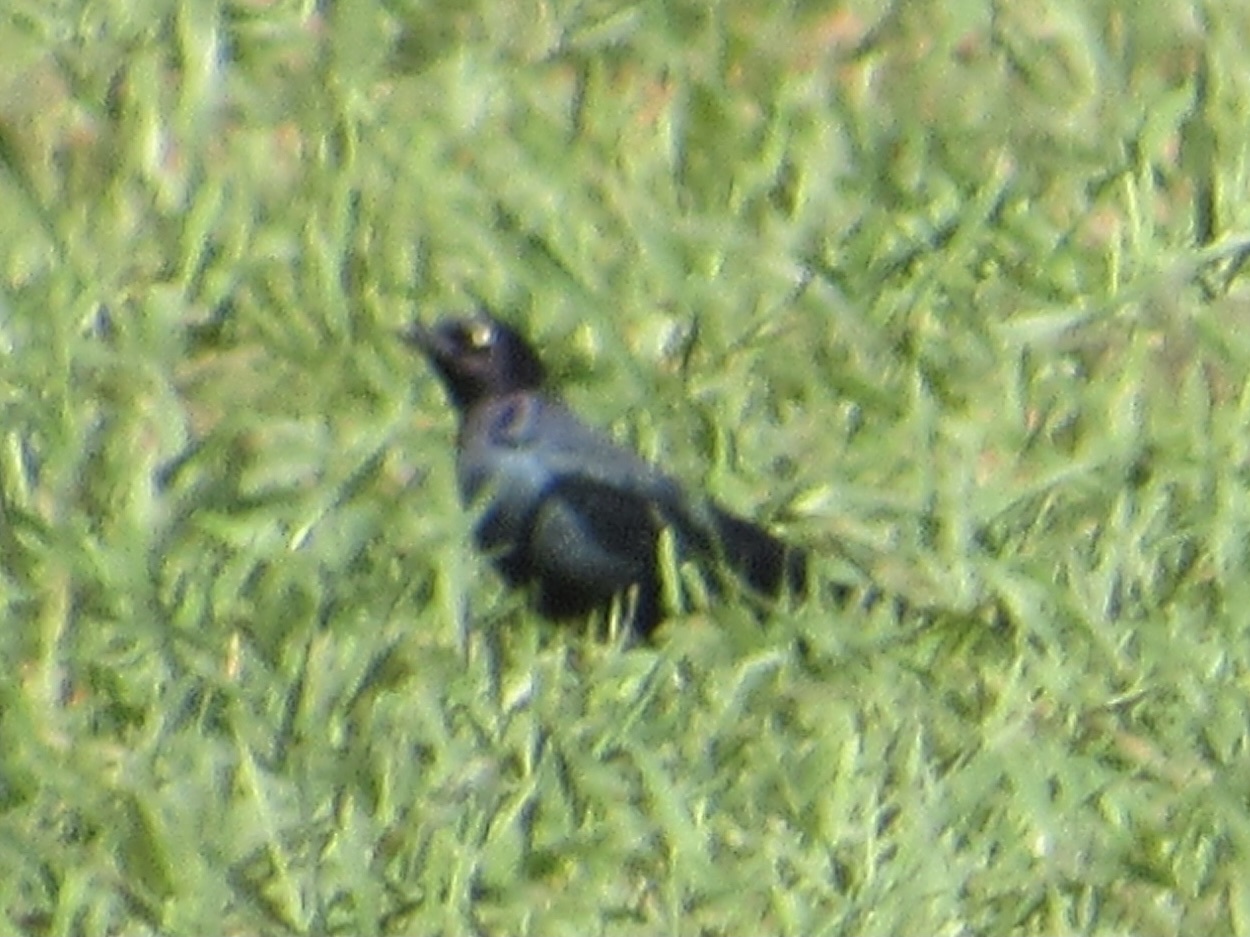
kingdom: Animalia
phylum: Chordata
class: Aves
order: Passeriformes
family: Icteridae
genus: Euphagus
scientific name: Euphagus cyanocephalus
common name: Brewer's blackbird
